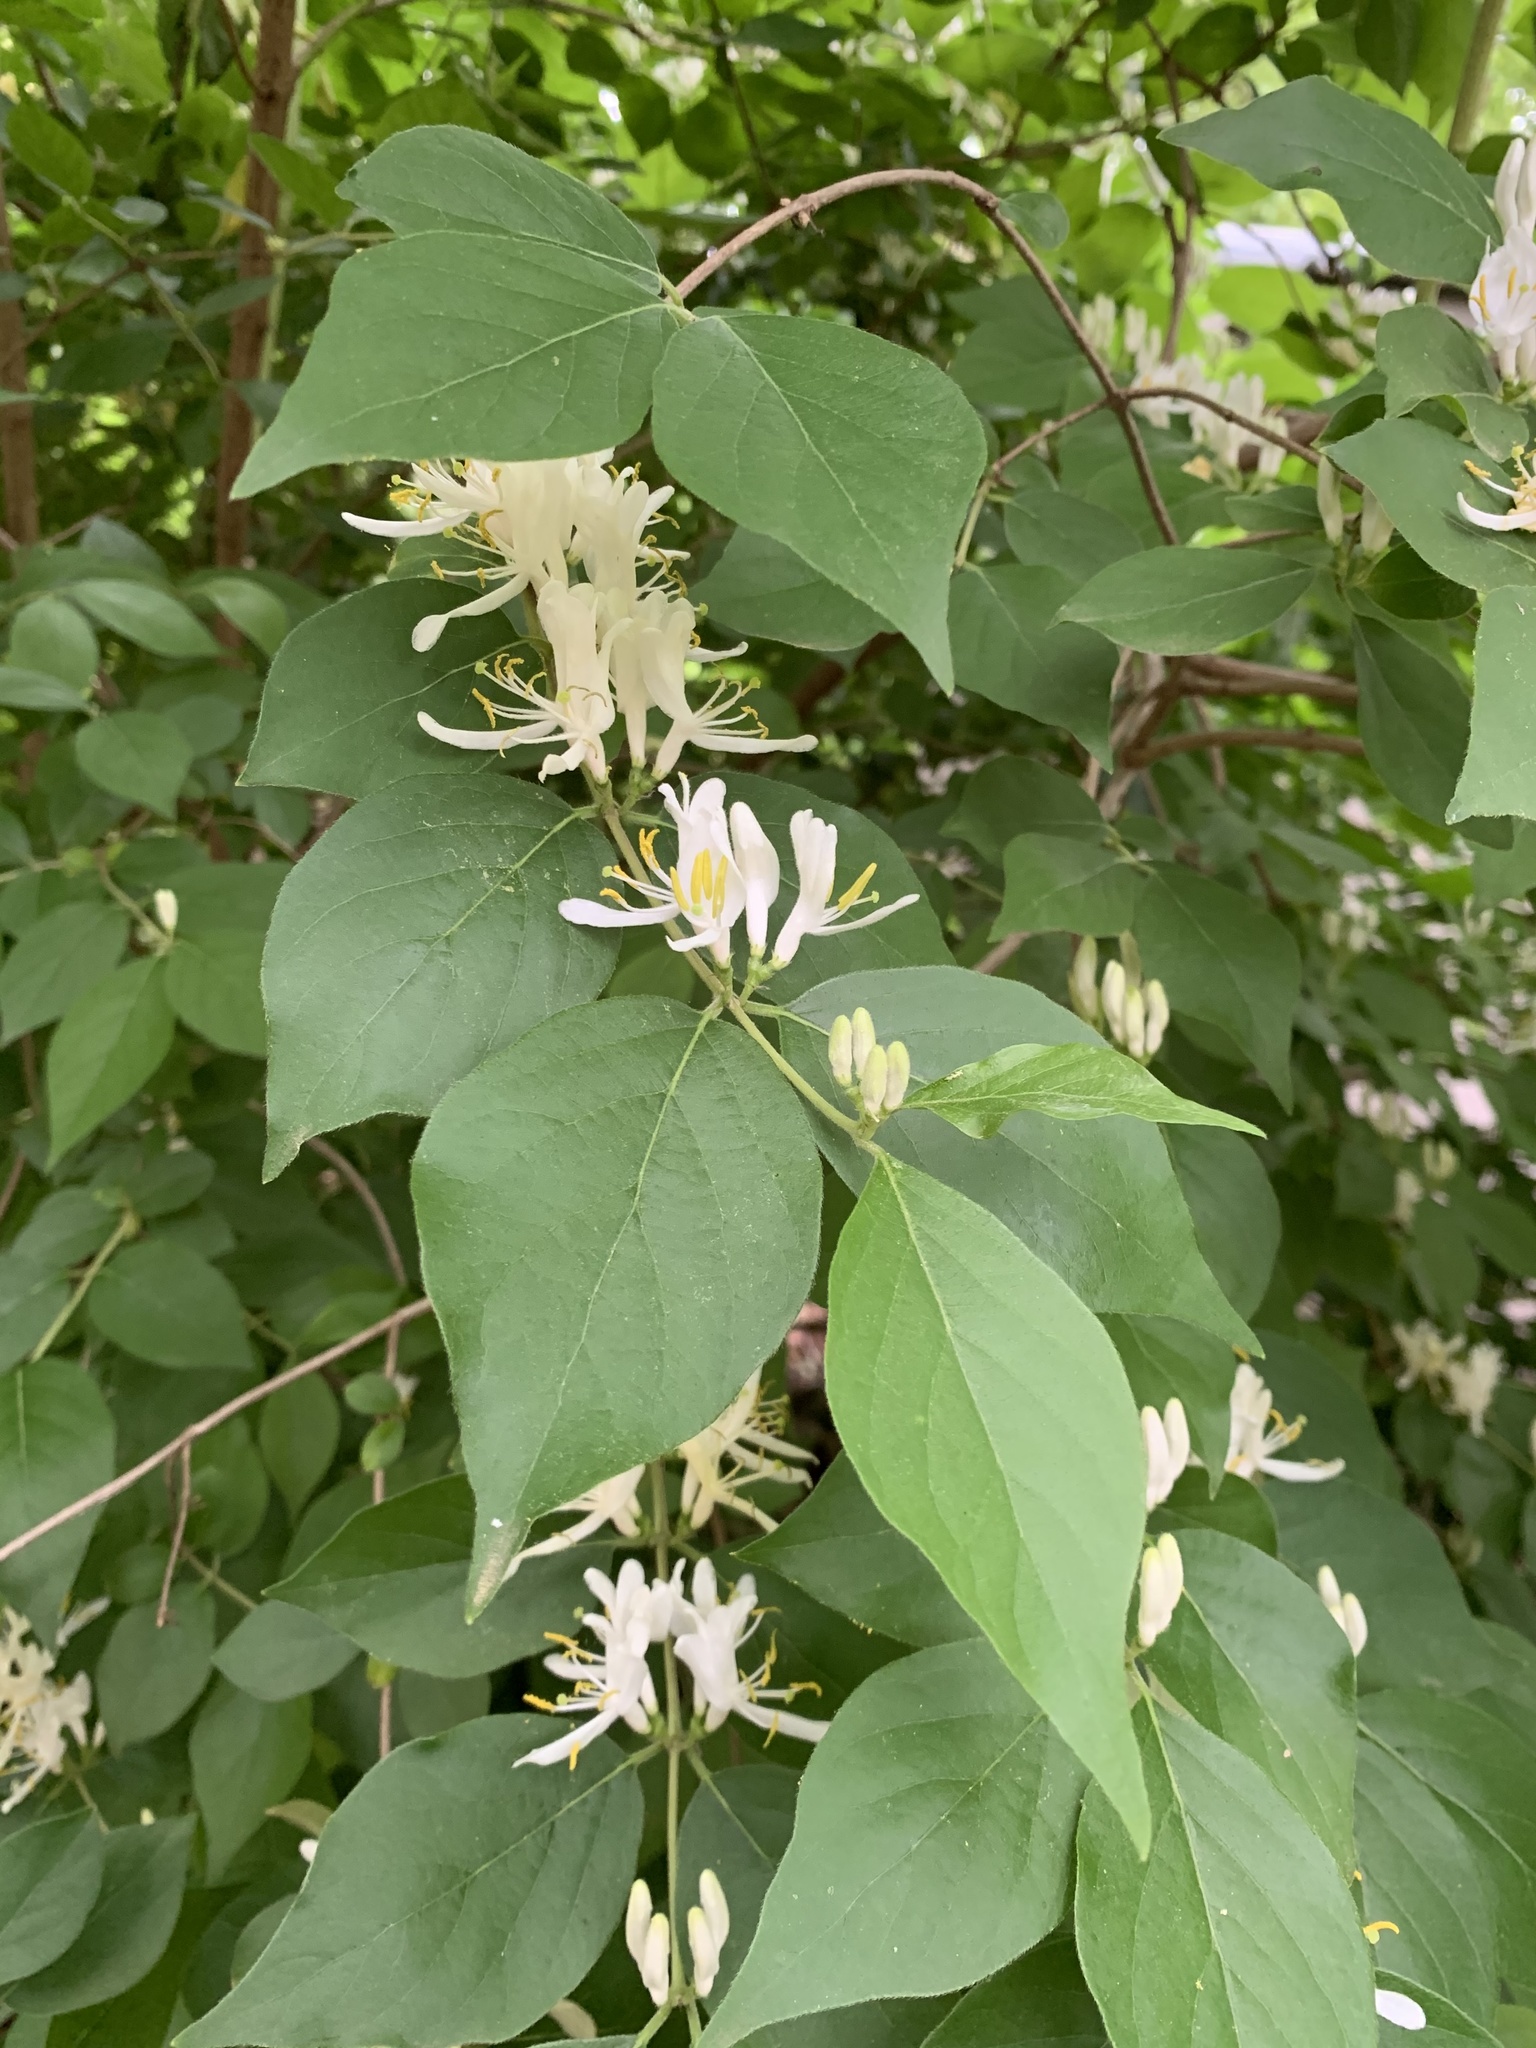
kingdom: Plantae
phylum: Tracheophyta
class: Magnoliopsida
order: Dipsacales
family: Caprifoliaceae
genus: Lonicera
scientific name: Lonicera maackii
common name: Amur honeysuckle
